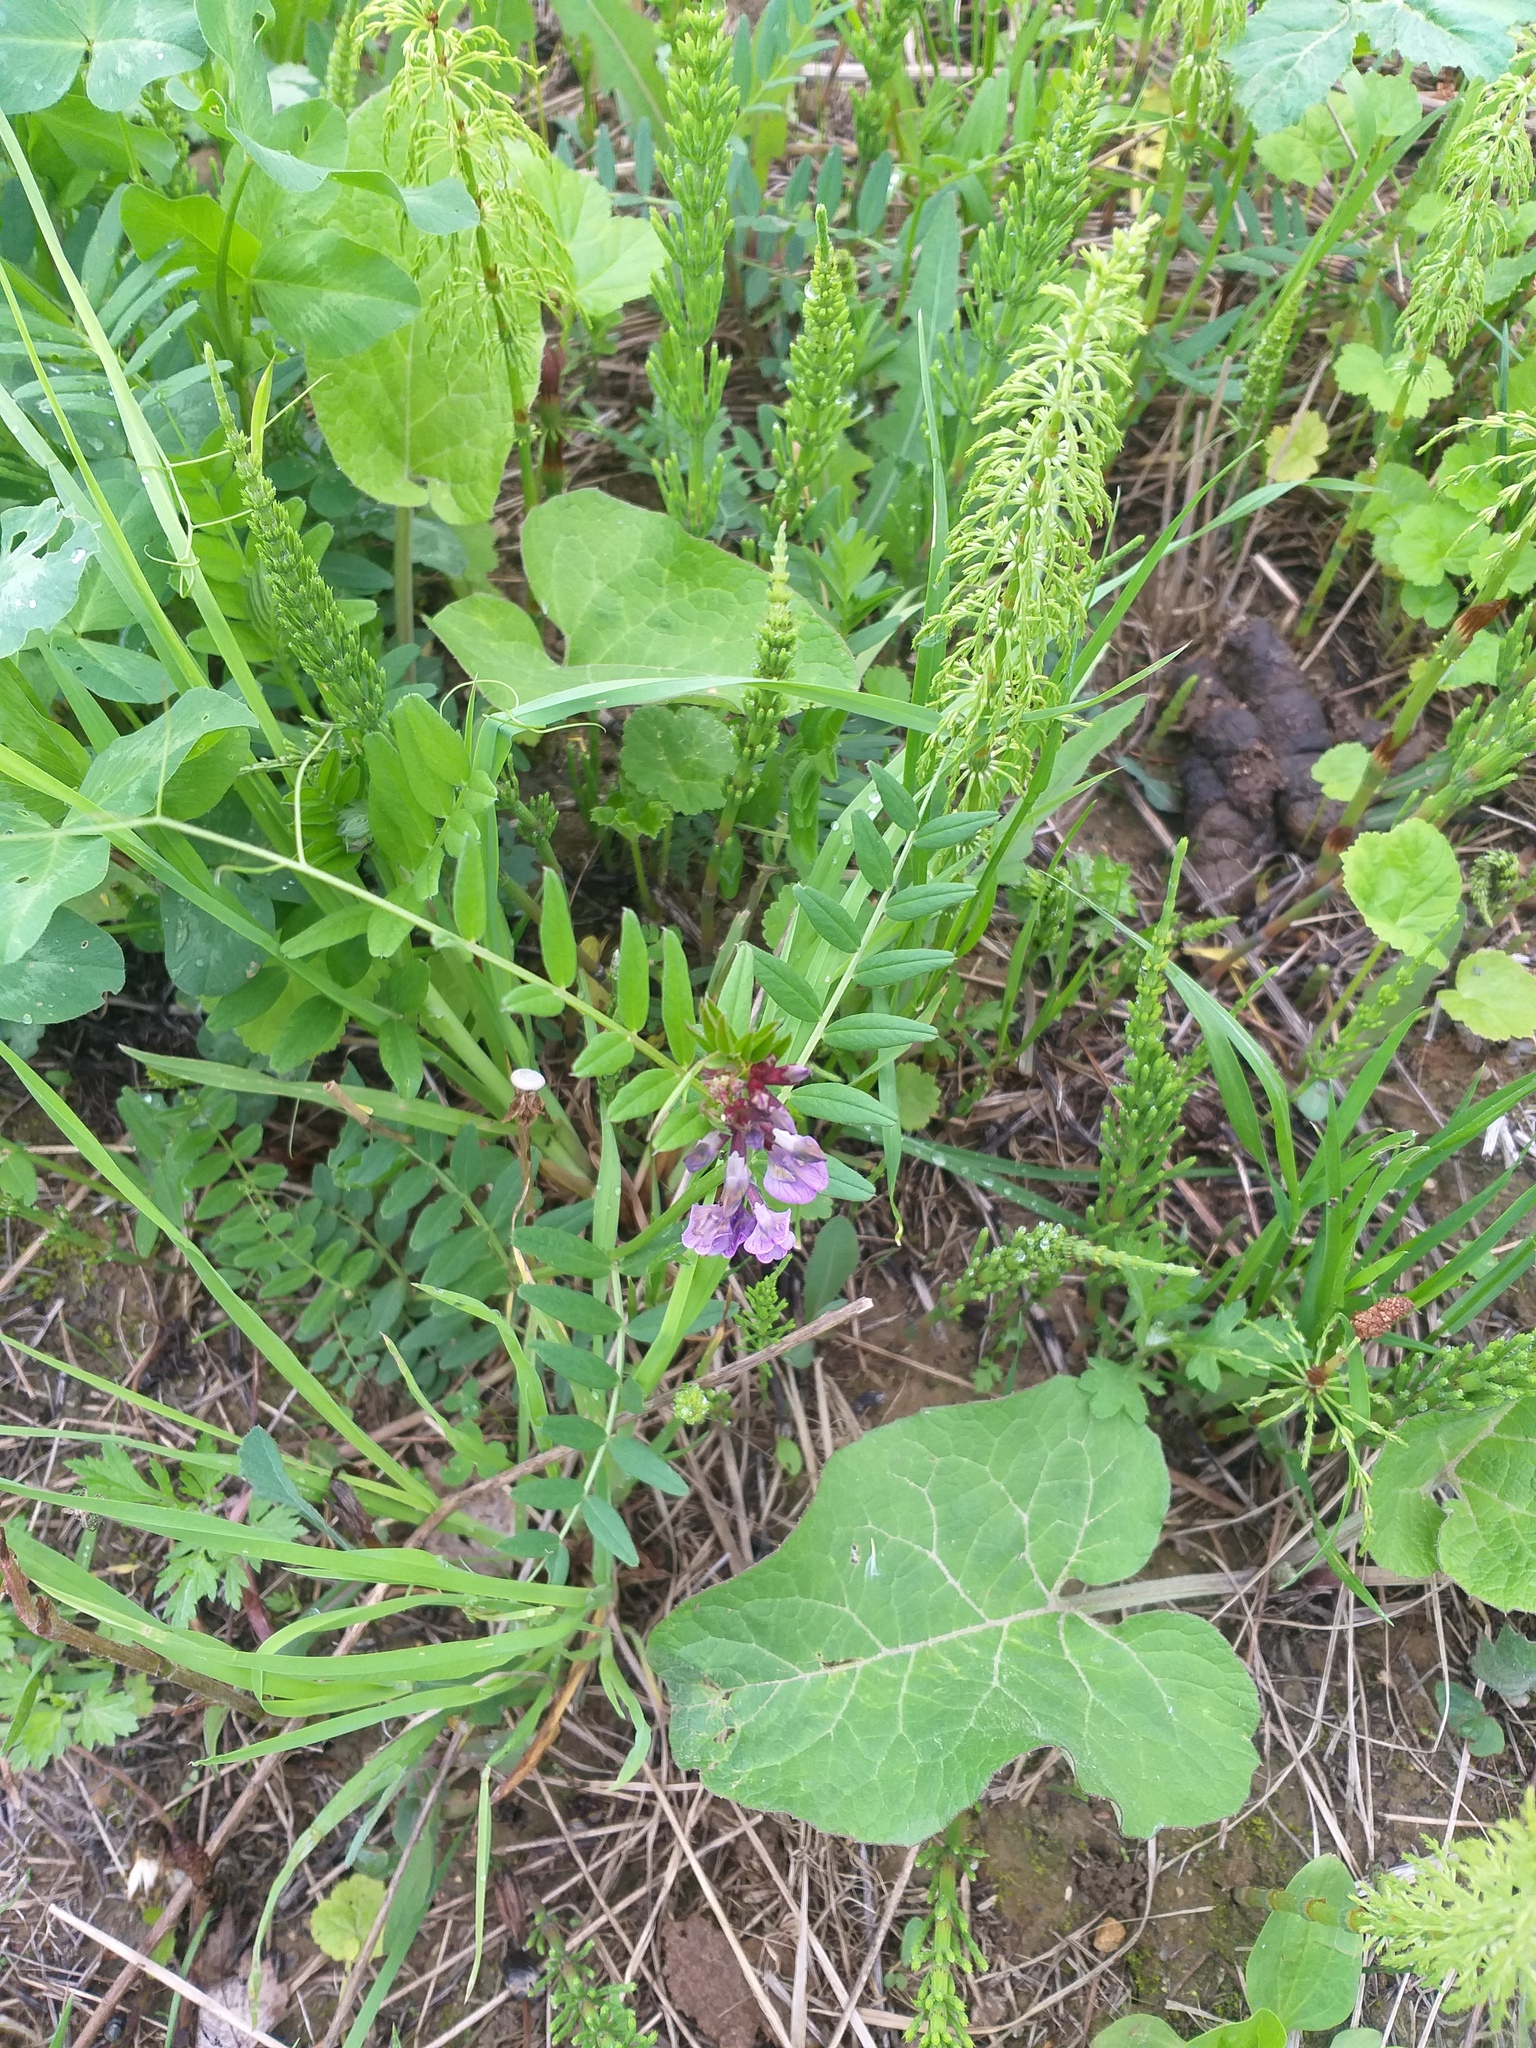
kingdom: Plantae
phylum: Tracheophyta
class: Magnoliopsida
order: Fabales
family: Fabaceae
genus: Vicia
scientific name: Vicia sepium
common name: Bush vetch
